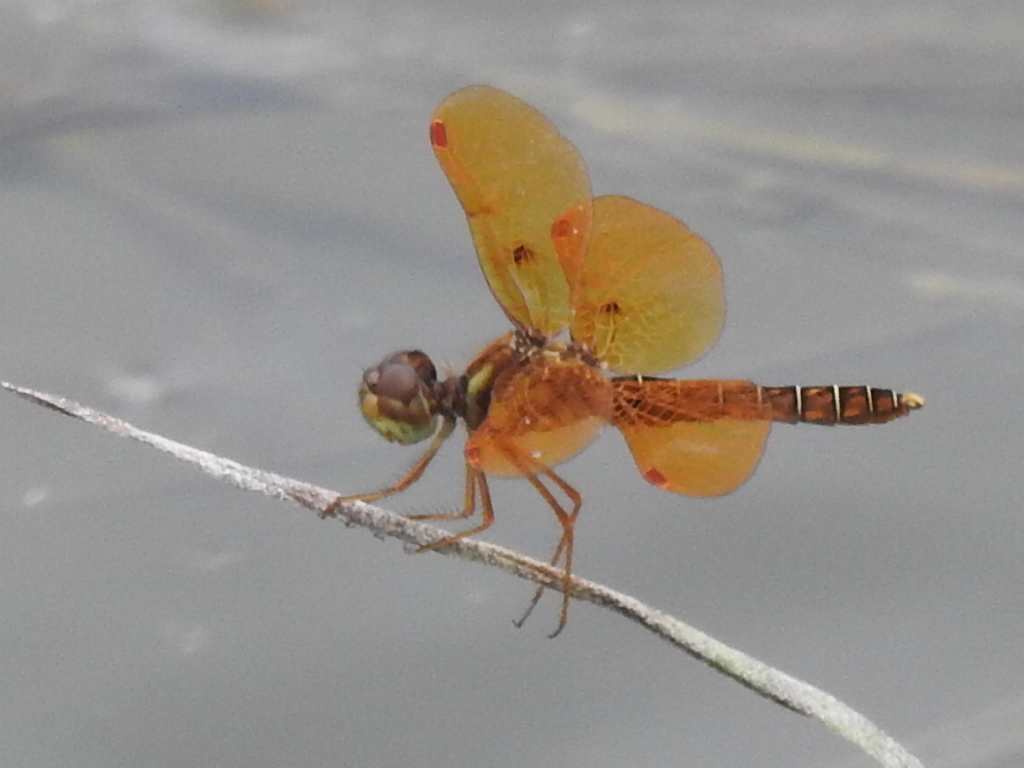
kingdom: Animalia
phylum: Arthropoda
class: Insecta
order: Odonata
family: Libellulidae
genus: Perithemis
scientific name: Perithemis tenera
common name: Eastern amberwing
